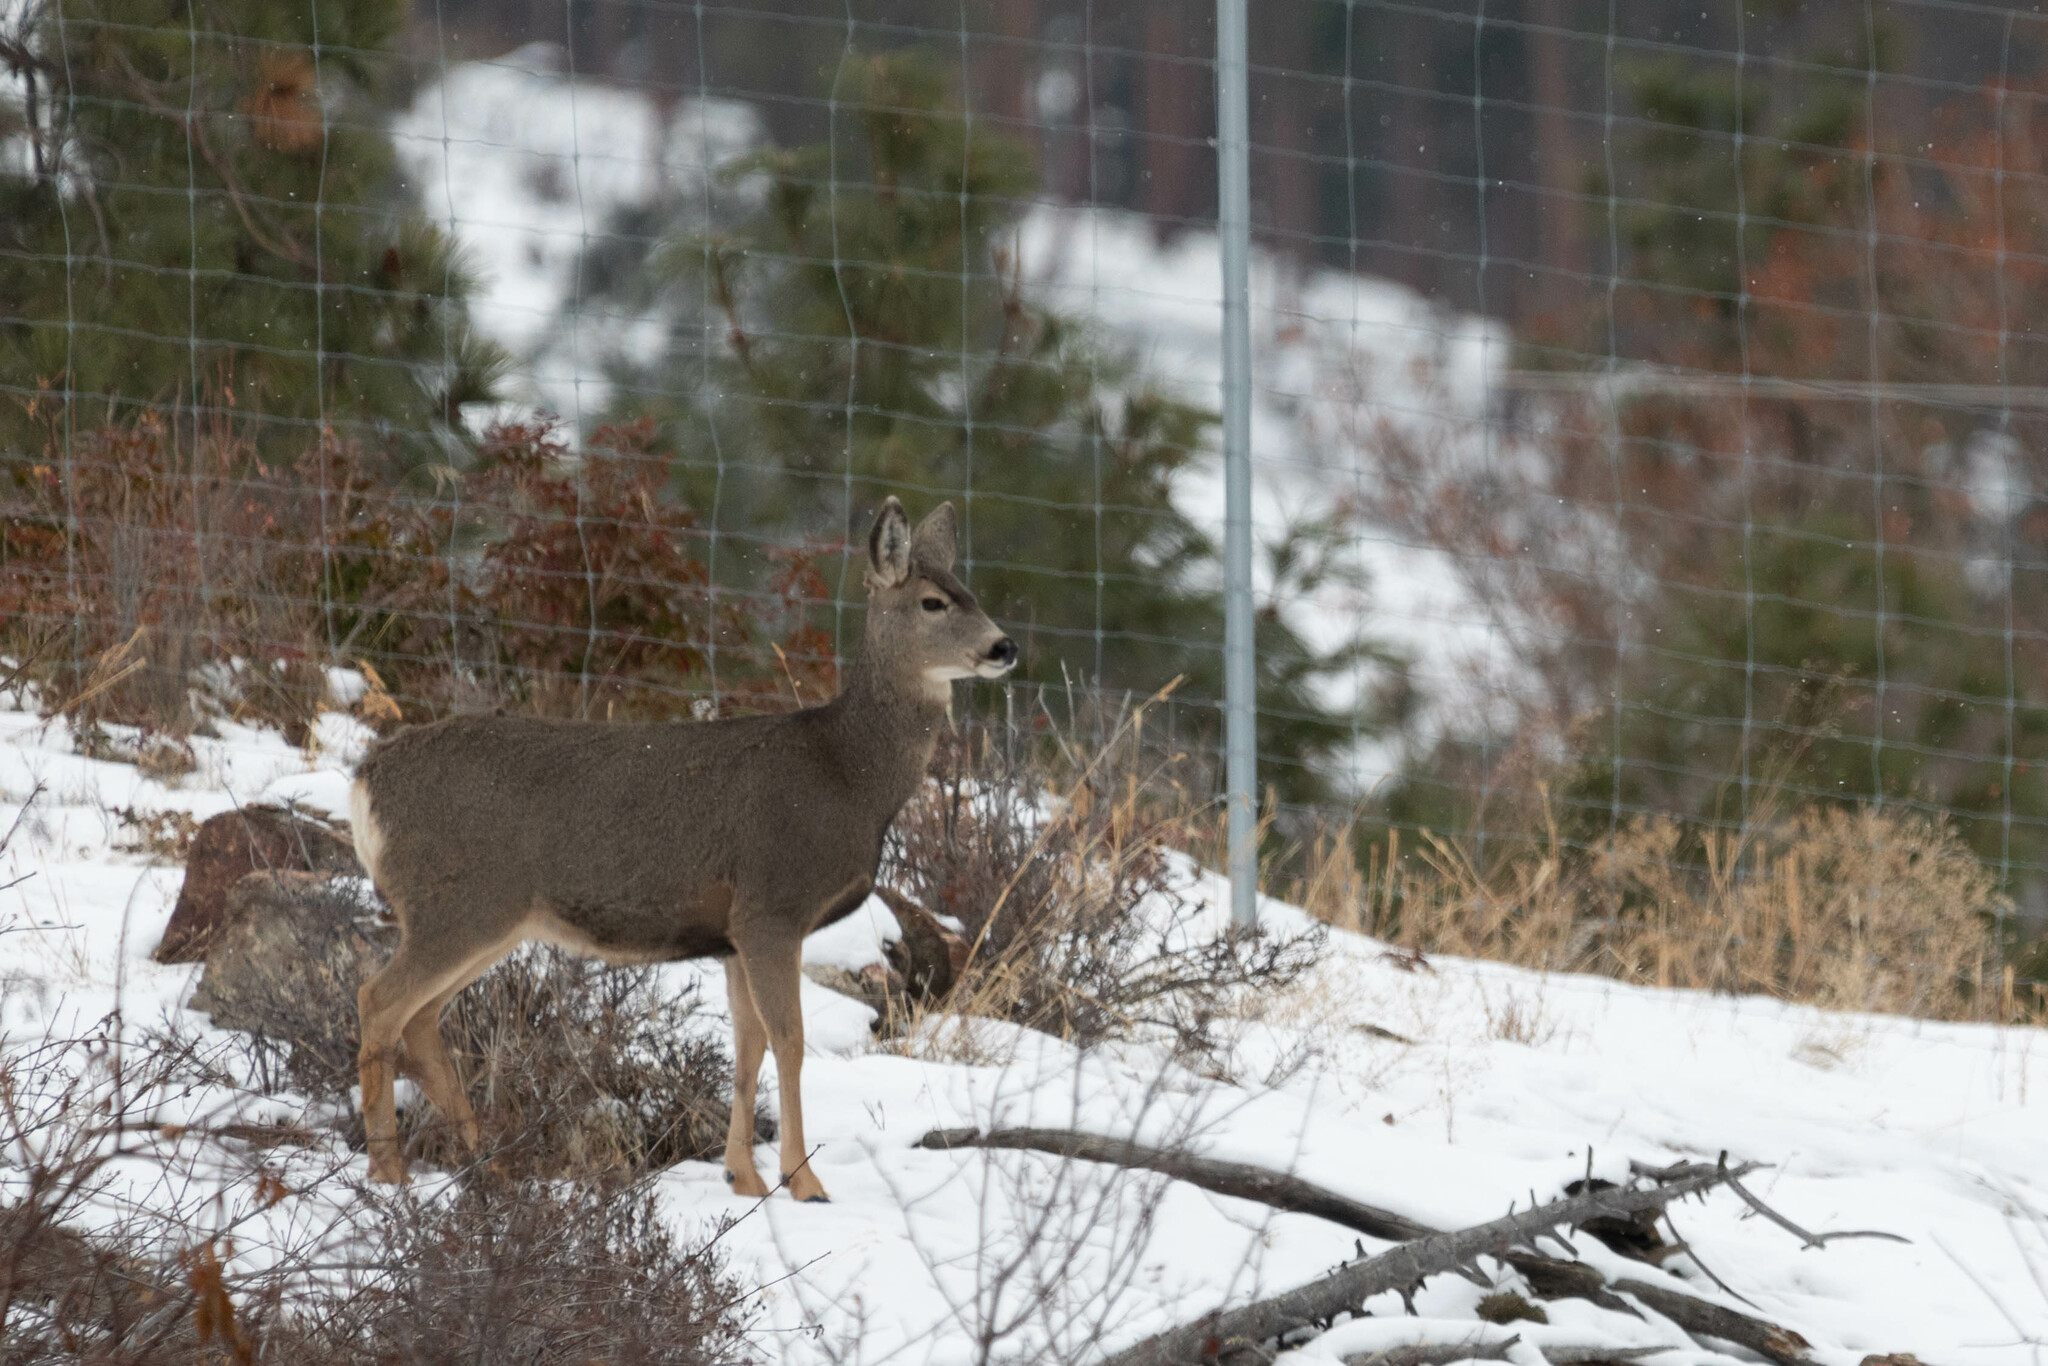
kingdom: Animalia
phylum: Chordata
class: Mammalia
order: Artiodactyla
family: Cervidae
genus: Odocoileus
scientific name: Odocoileus hemionus
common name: Mule deer
